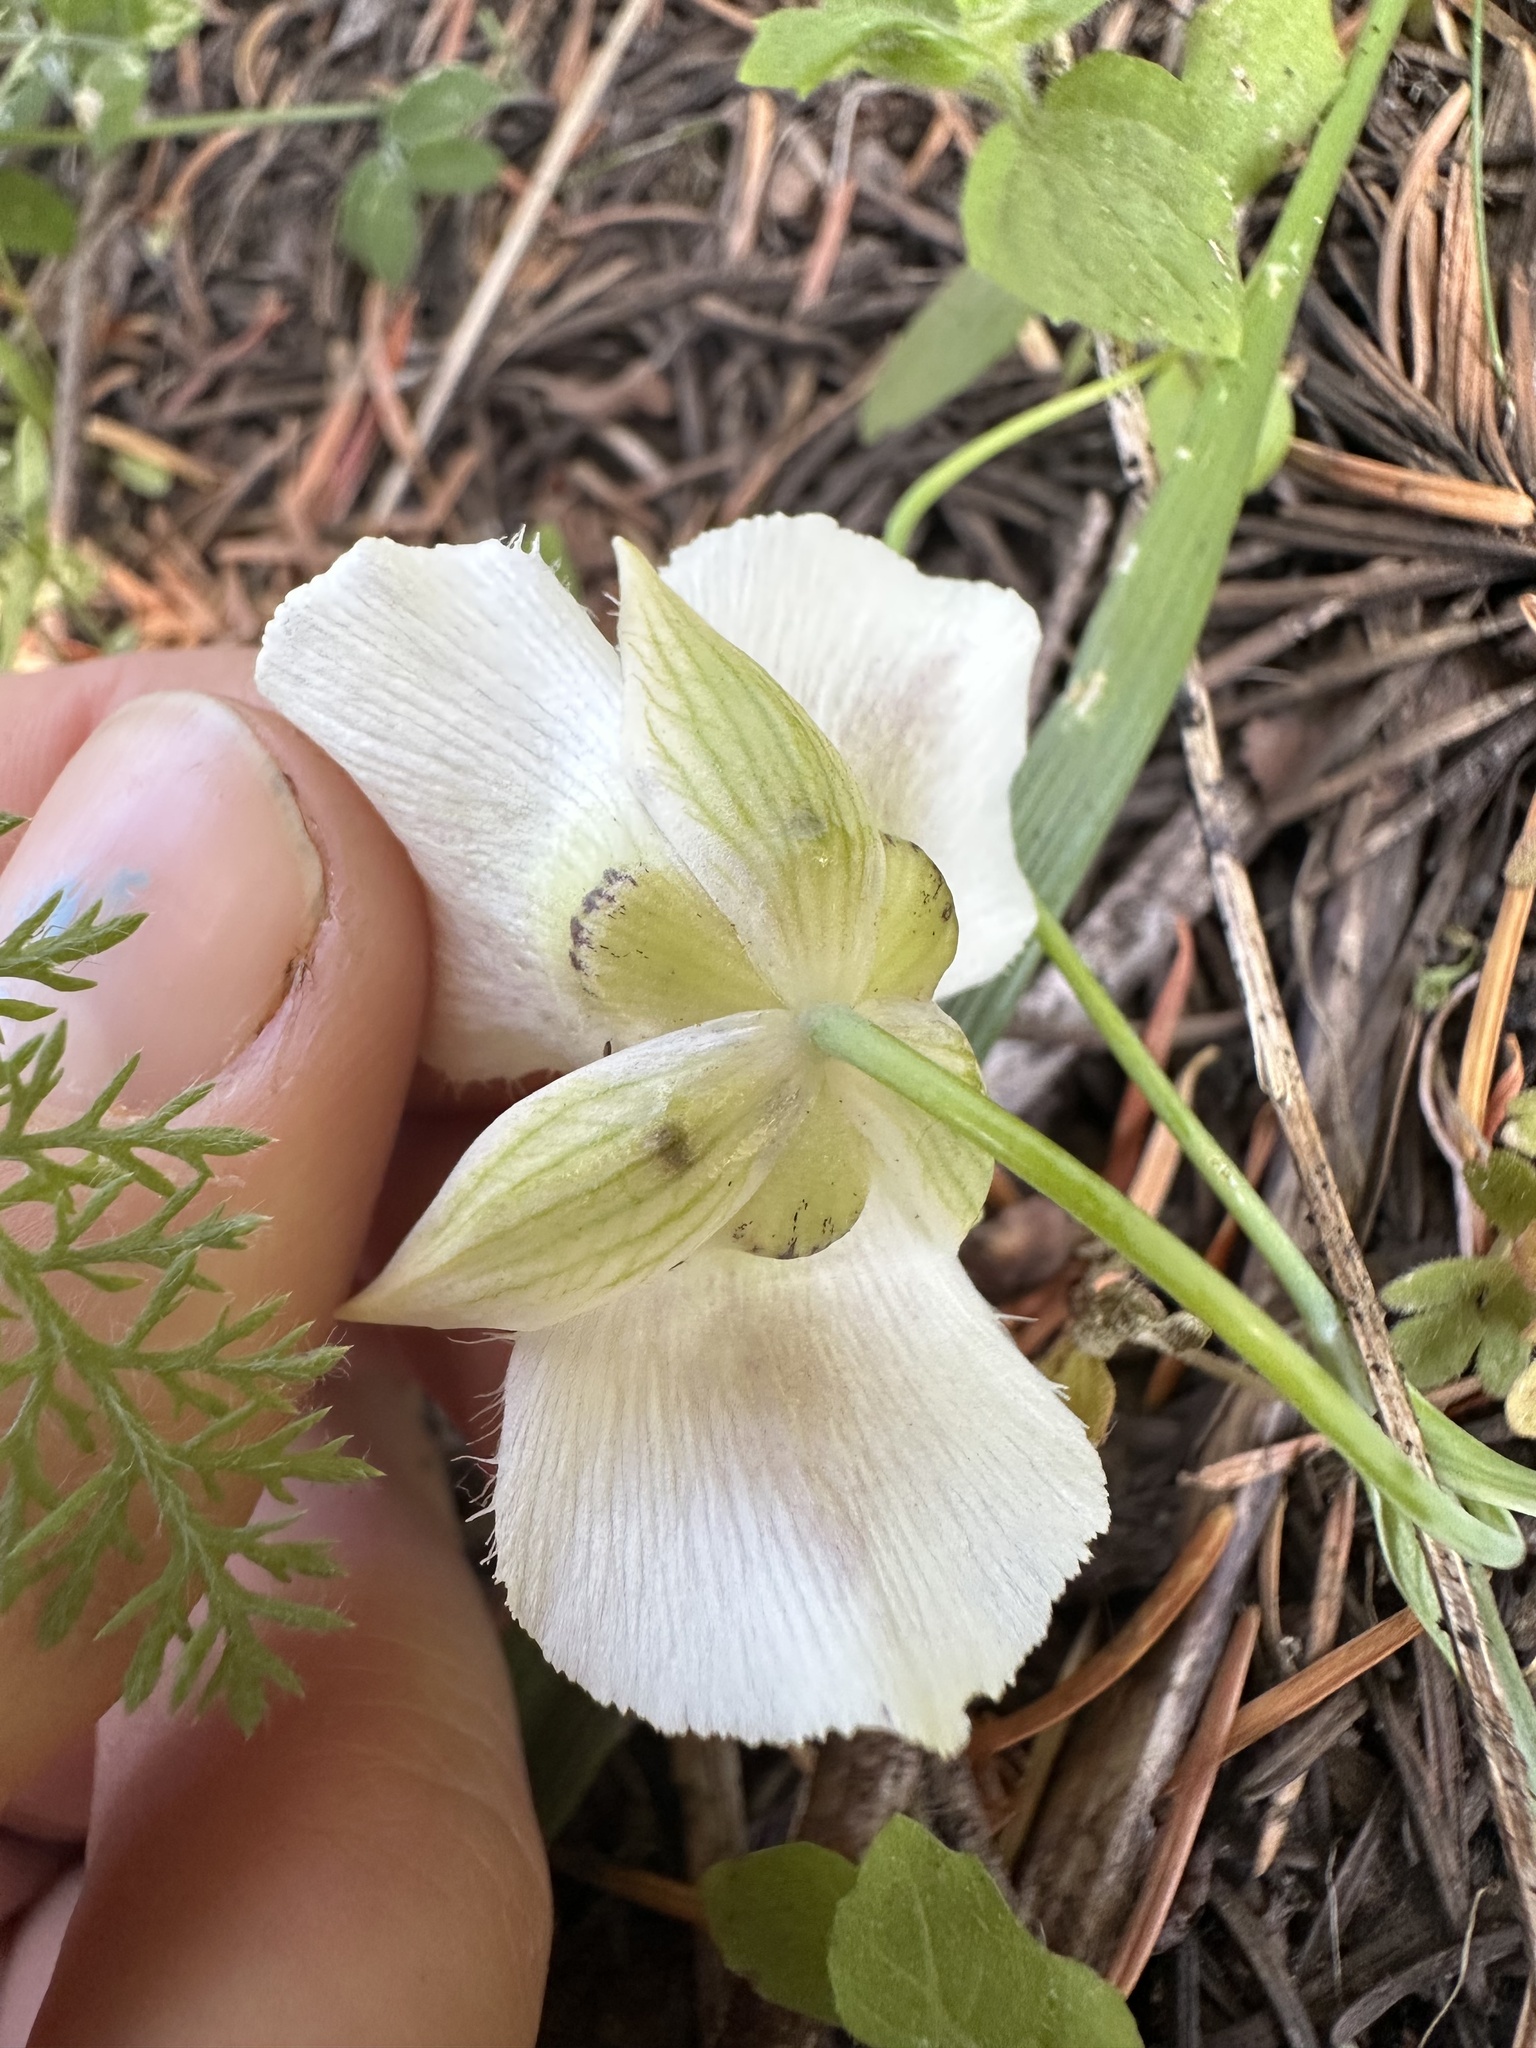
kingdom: Plantae
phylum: Tracheophyta
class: Liliopsida
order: Liliales
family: Liliaceae
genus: Calochortus
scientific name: Calochortus subalpinus
